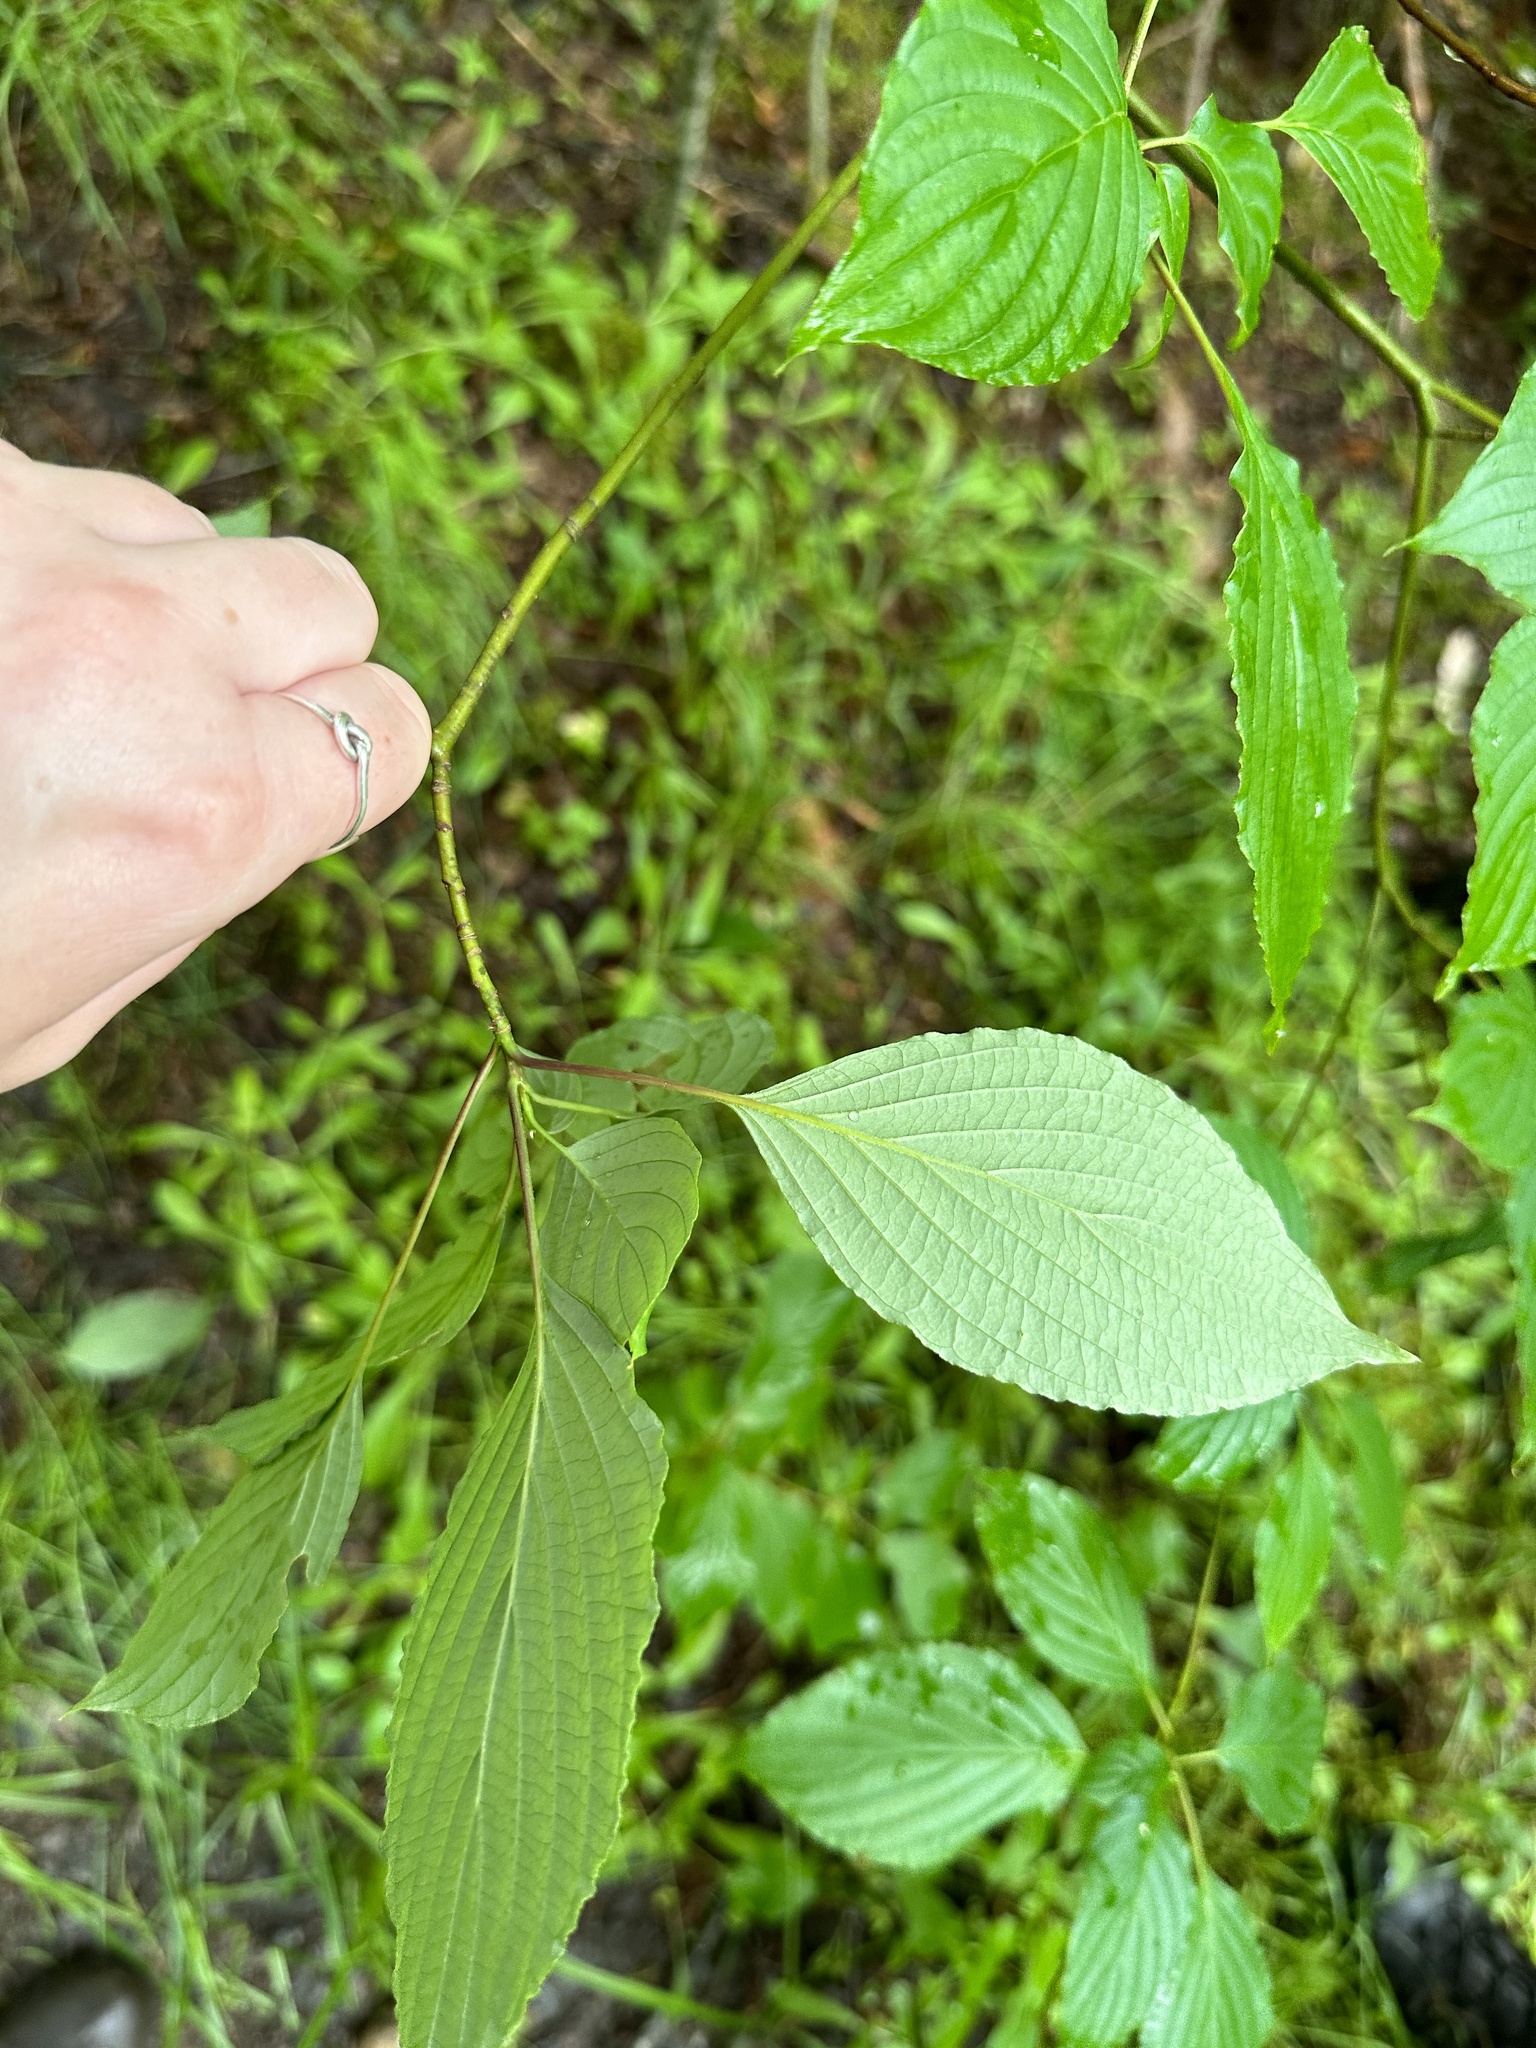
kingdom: Plantae
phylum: Tracheophyta
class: Magnoliopsida
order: Cornales
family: Cornaceae
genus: Cornus
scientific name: Cornus alternifolia
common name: Pagoda dogwood
